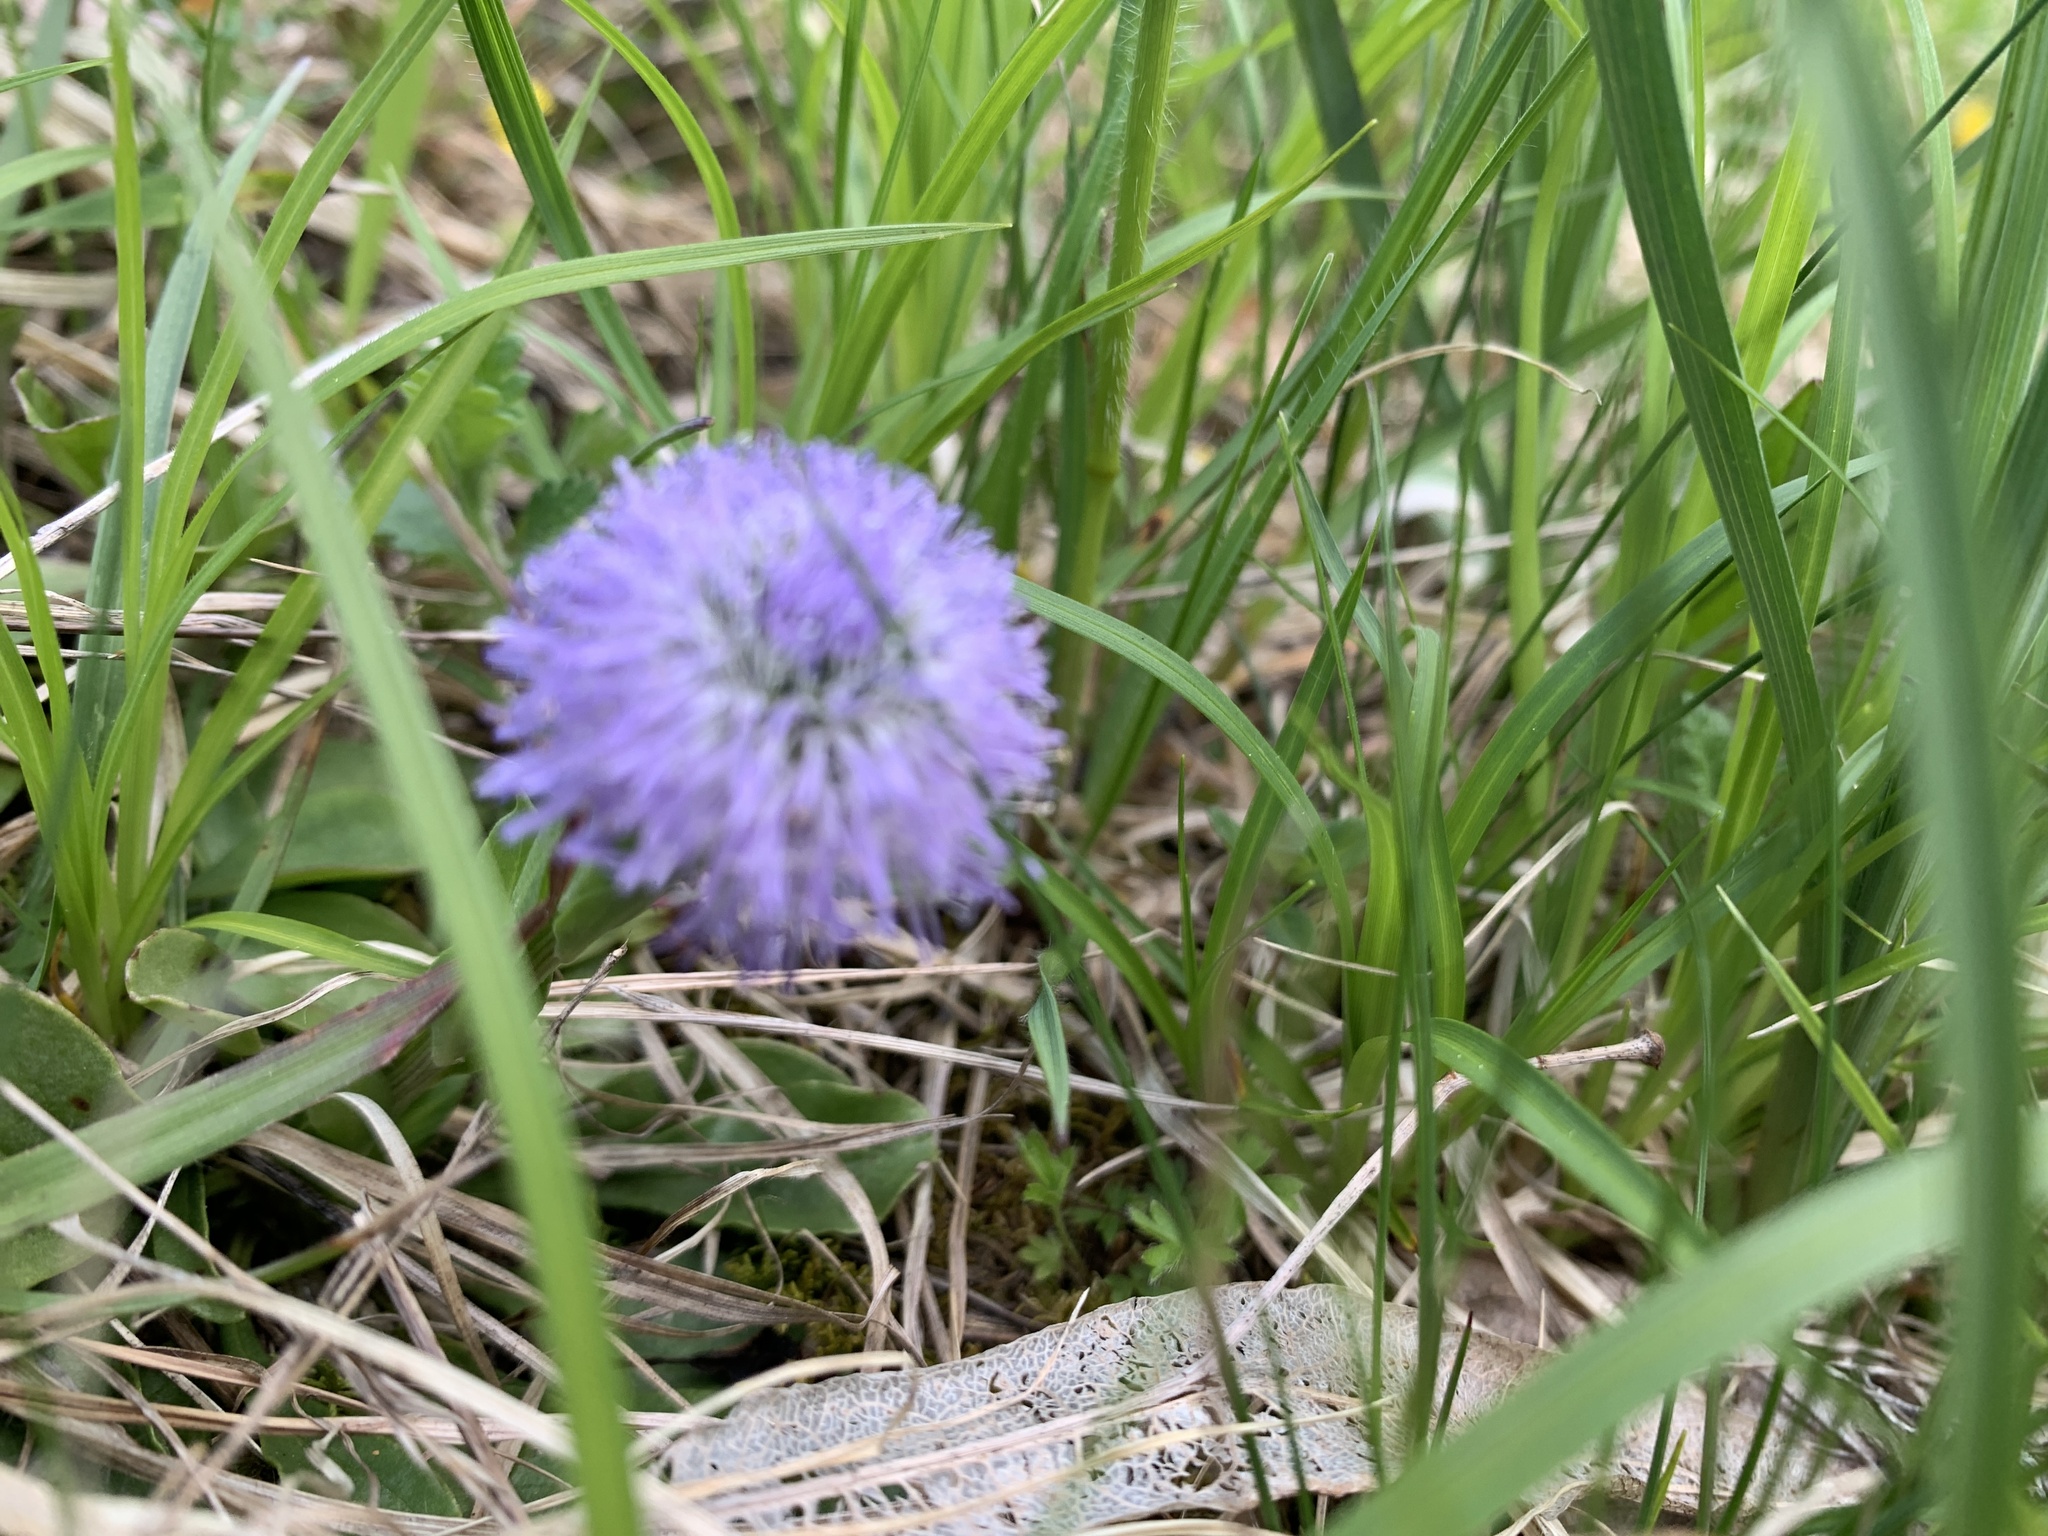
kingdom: Plantae
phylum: Tracheophyta
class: Magnoliopsida
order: Lamiales
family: Plantaginaceae
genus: Globularia
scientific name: Globularia bisnagarica
